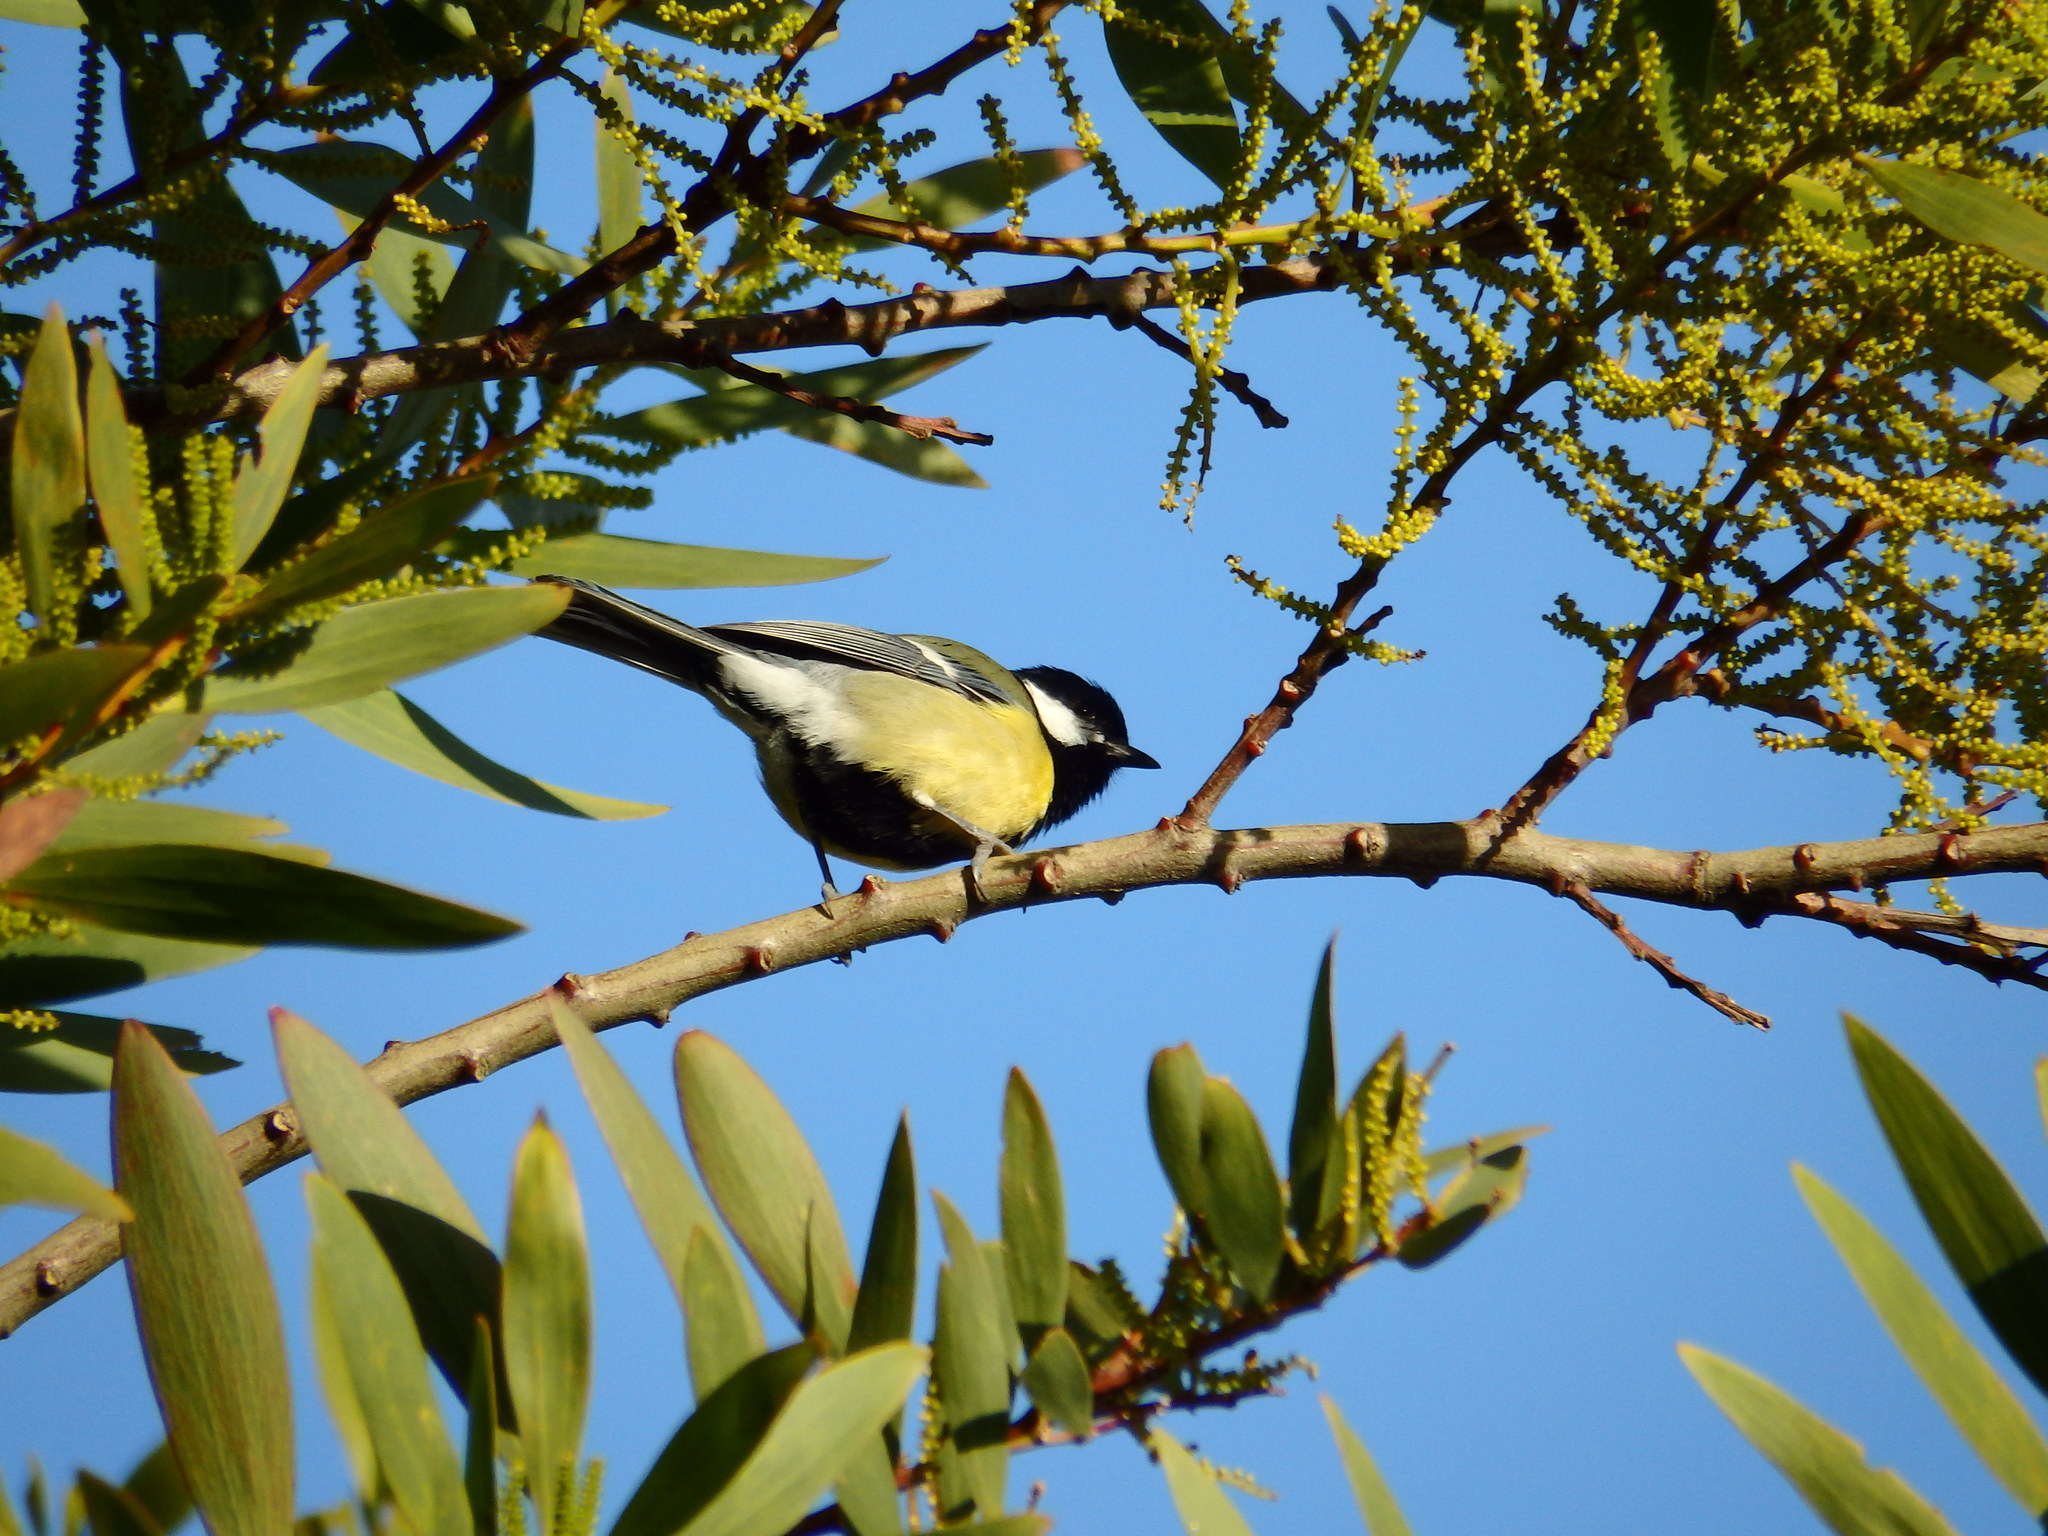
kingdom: Animalia
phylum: Chordata
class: Aves
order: Passeriformes
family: Paridae
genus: Parus
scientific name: Parus major
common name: Great tit
